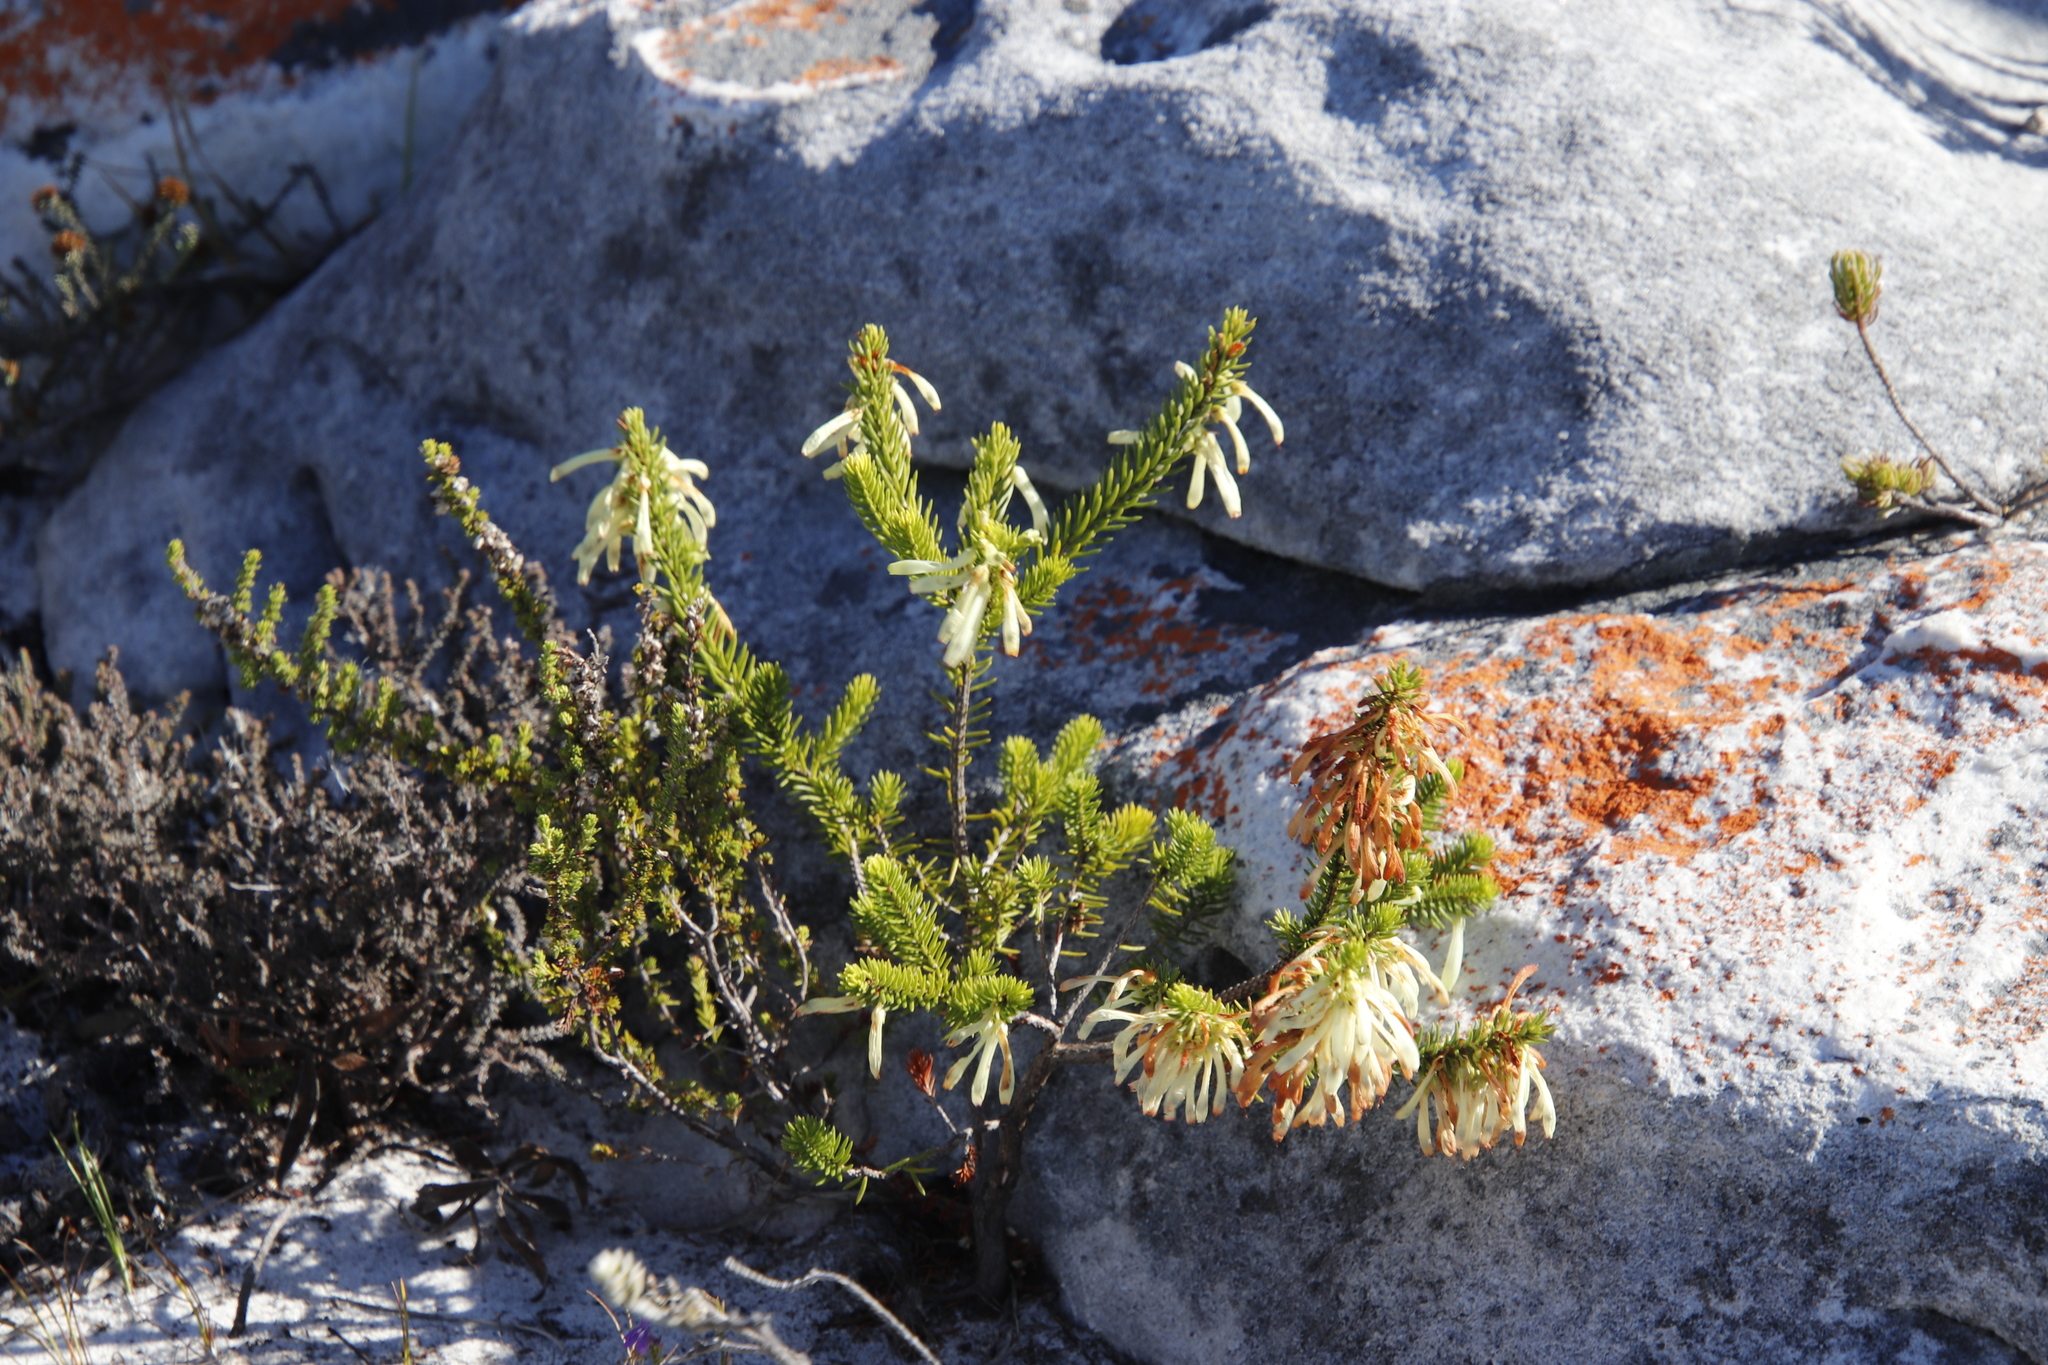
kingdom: Plantae
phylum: Tracheophyta
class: Magnoliopsida
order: Ericales
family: Ericaceae
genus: Erica
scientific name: Erica mammosa
